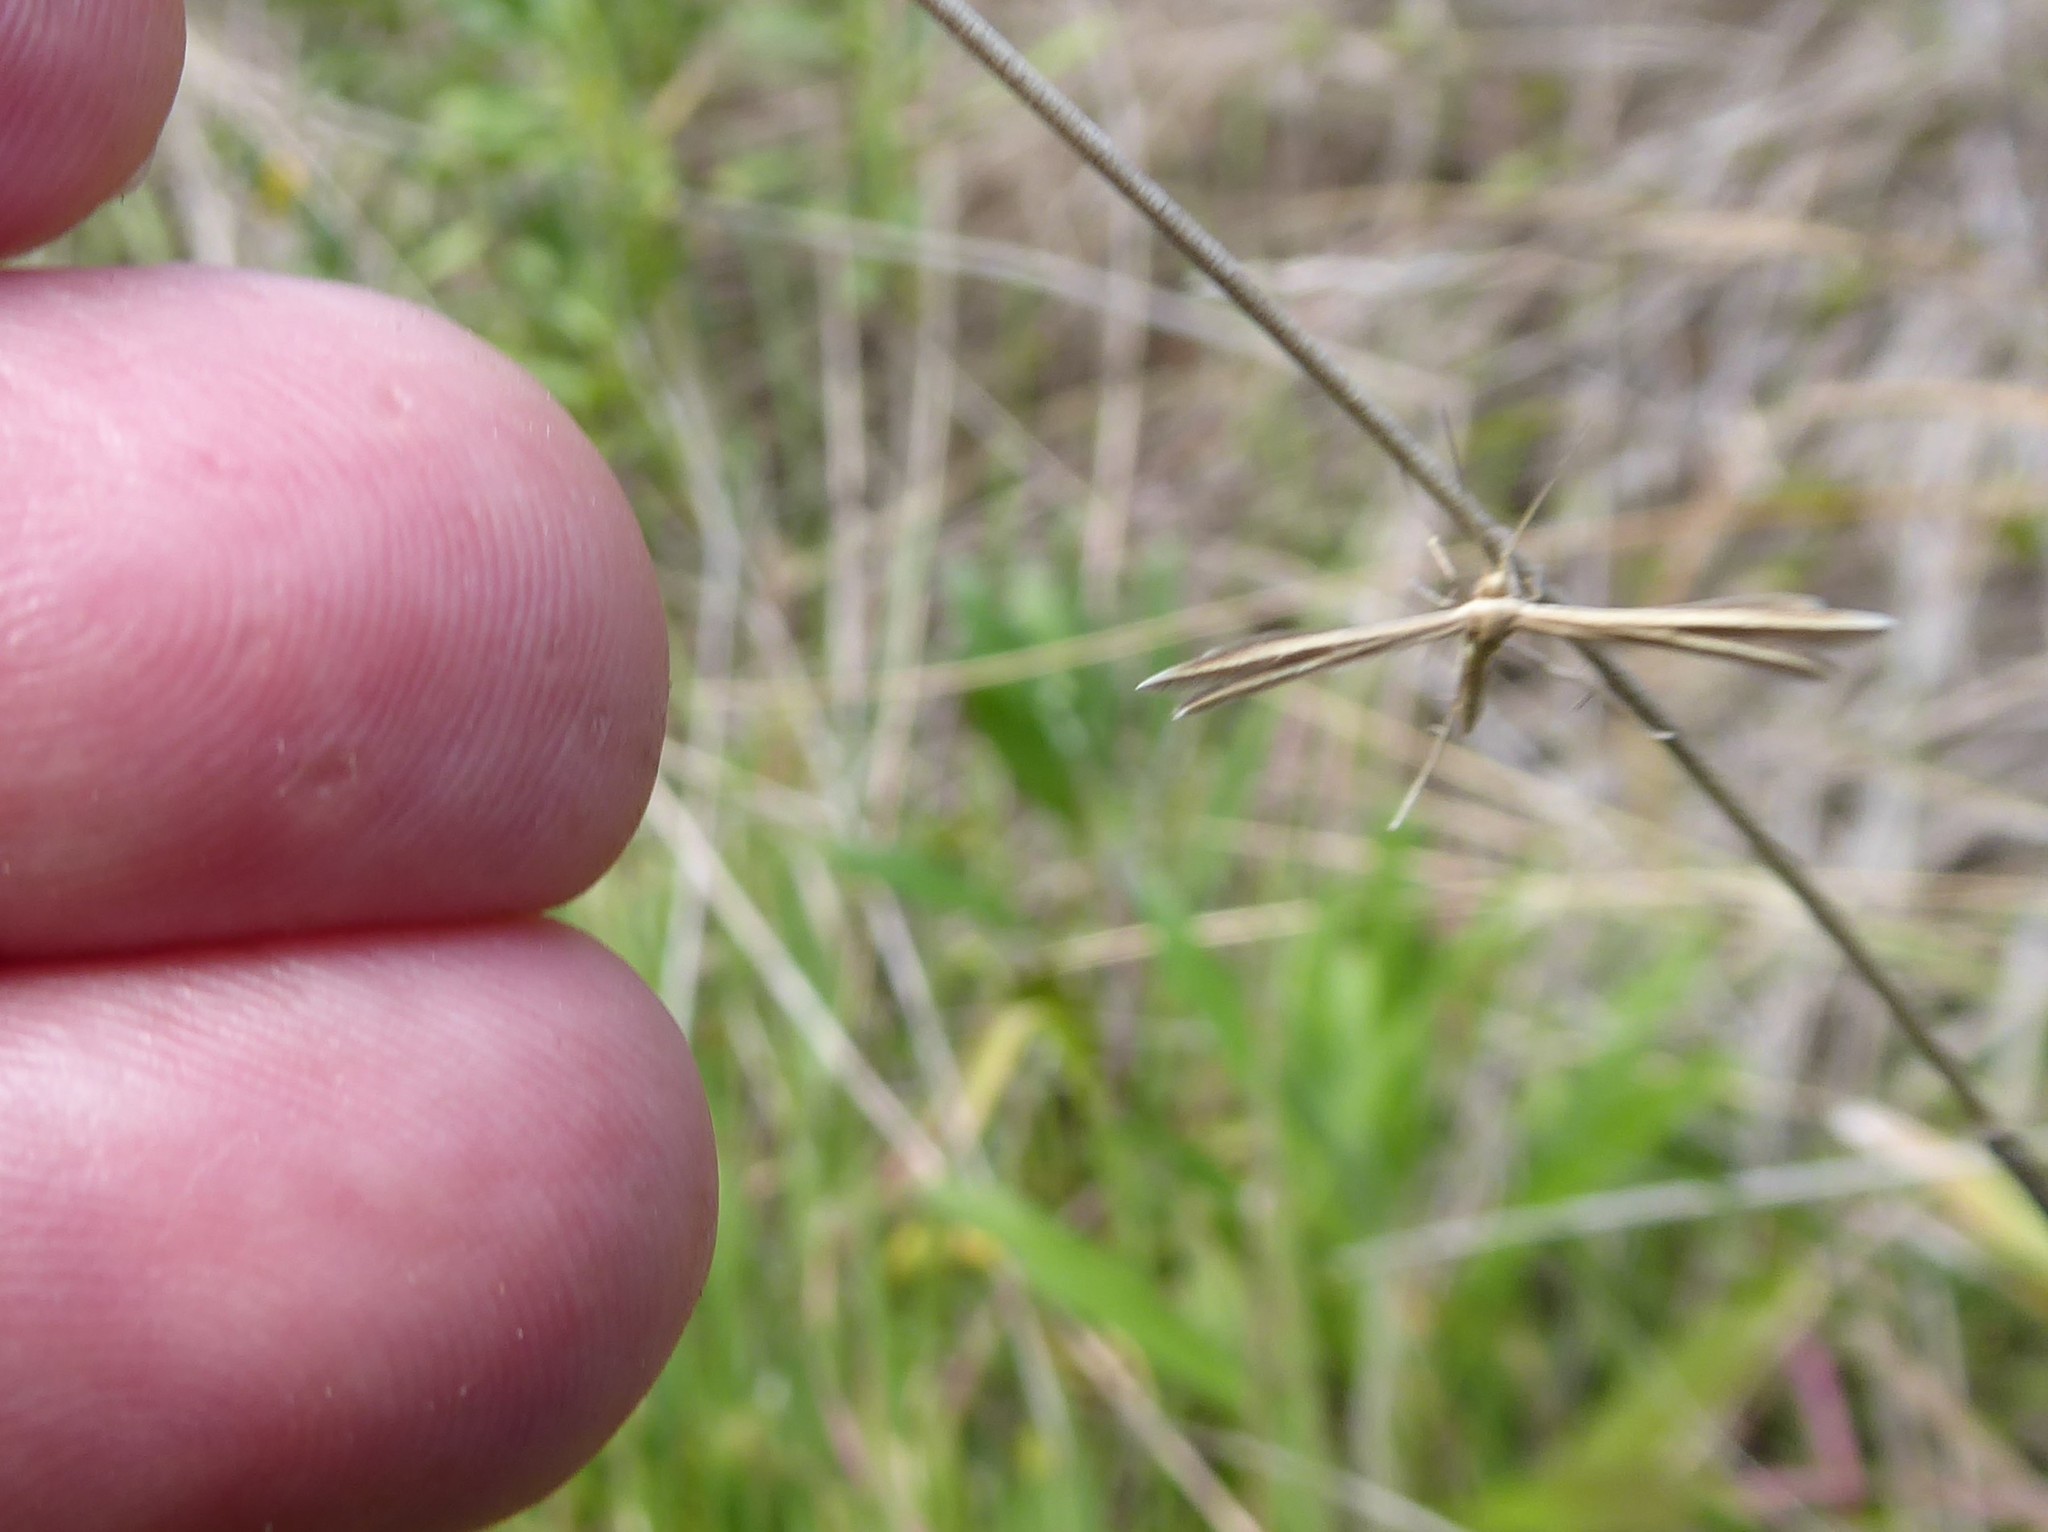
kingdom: Animalia
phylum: Arthropoda
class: Insecta
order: Lepidoptera
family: Pterophoridae
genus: Pterophorus
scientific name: Pterophorus innotatalis
